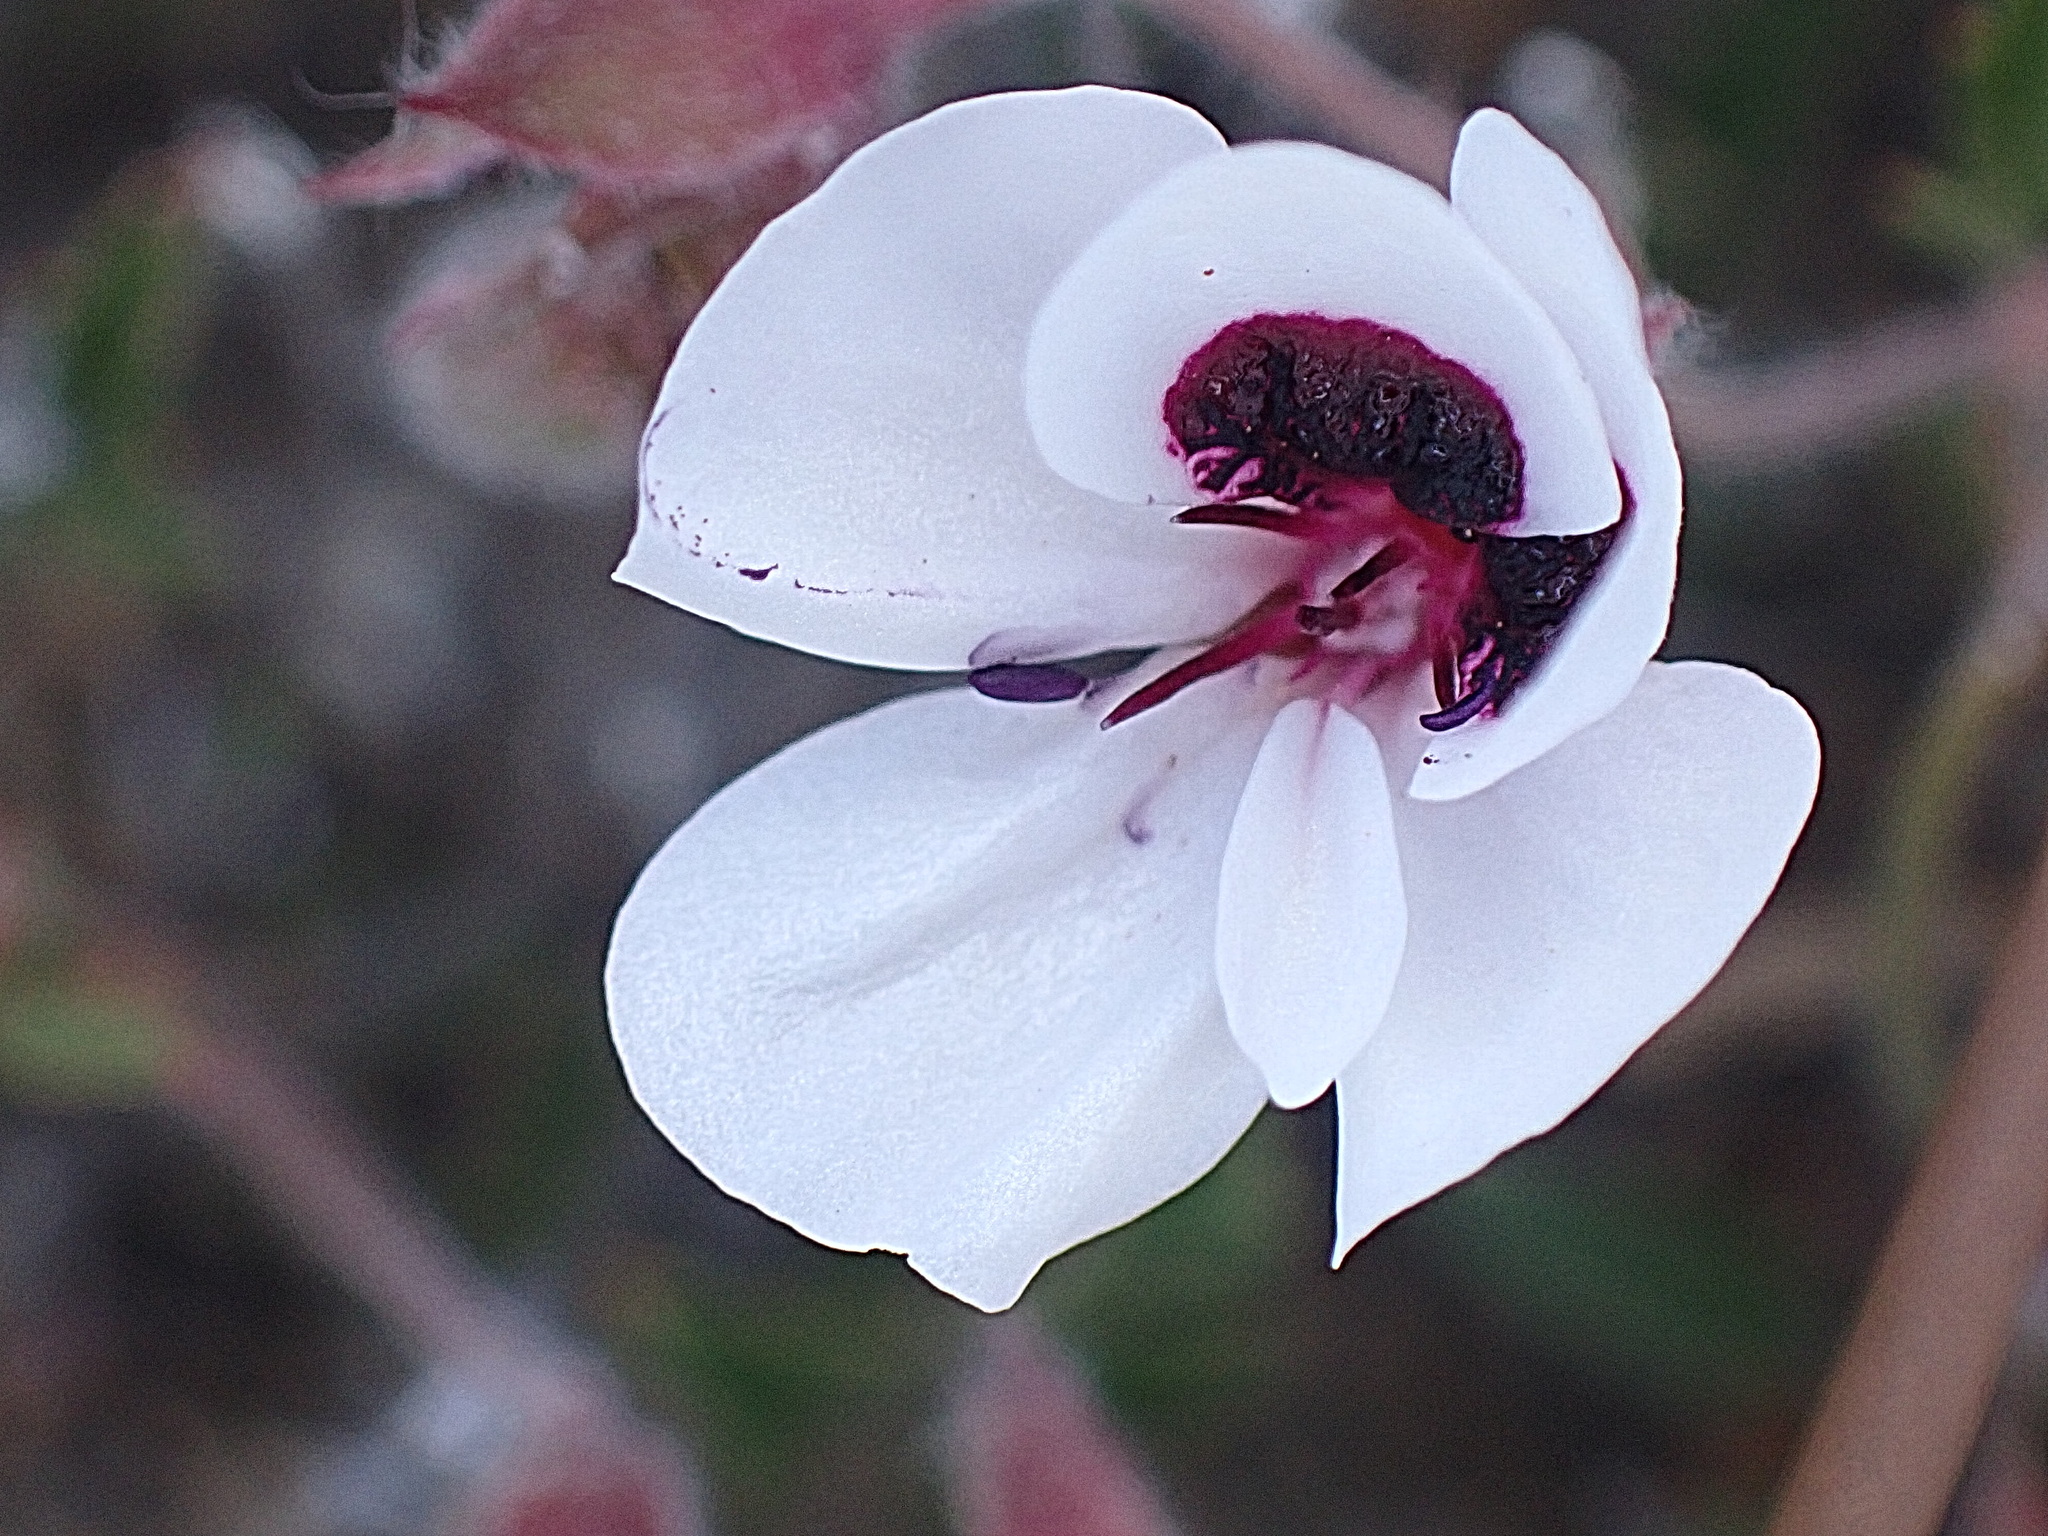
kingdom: Plantae
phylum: Tracheophyta
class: Magnoliopsida
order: Geraniales
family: Geraniaceae
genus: Pelargonium
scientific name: Pelargonium tricolor
